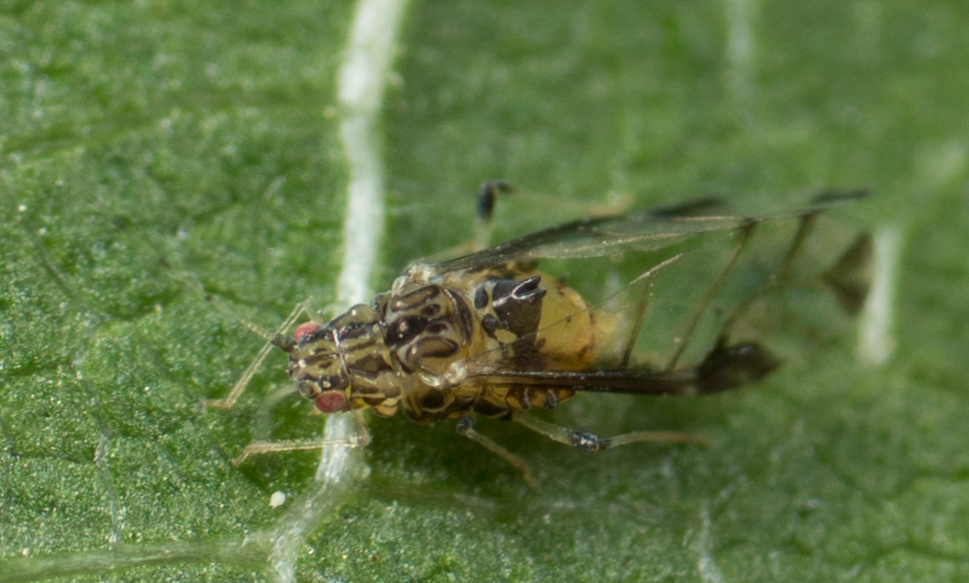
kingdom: Animalia
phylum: Arthropoda
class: Insecta
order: Hemiptera
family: Aphididae
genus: Sarucallis
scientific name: Sarucallis kahawaluokalani
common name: Crapemyrtle aphid
